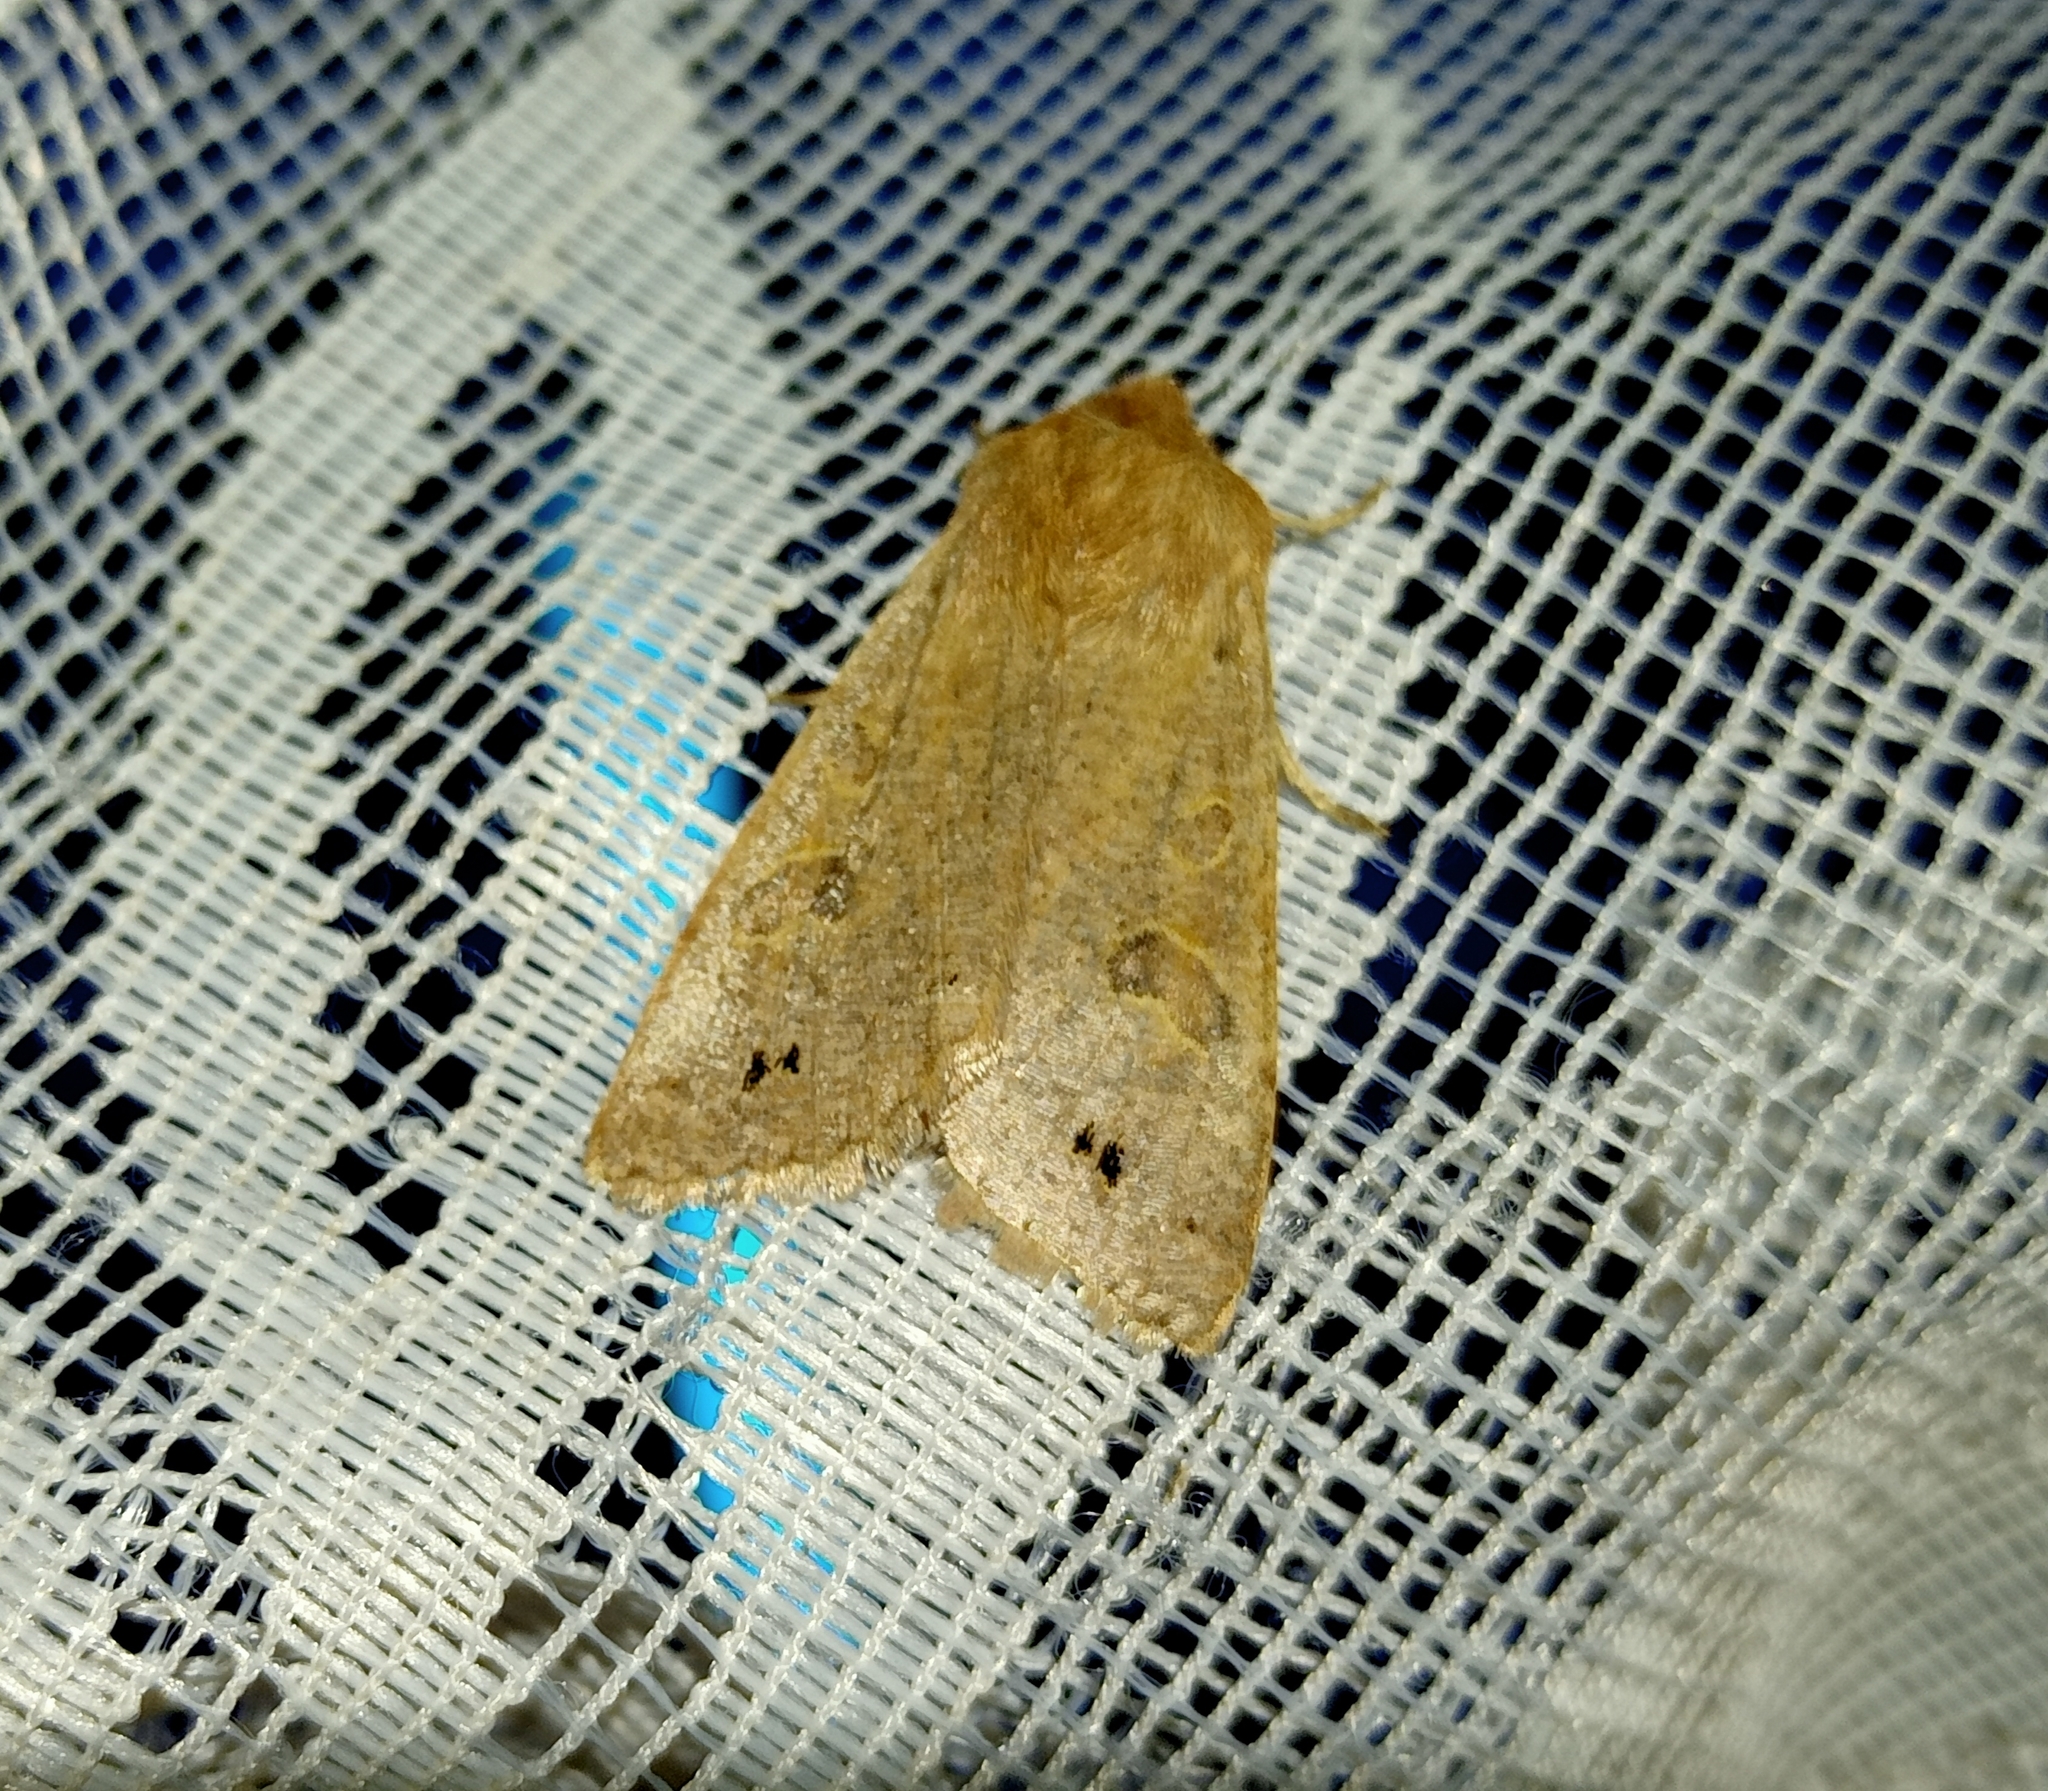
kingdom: Animalia
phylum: Arthropoda
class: Insecta
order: Lepidoptera
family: Noctuidae
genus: Anorthoa
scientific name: Anorthoa munda
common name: Twin-spotted quaker
